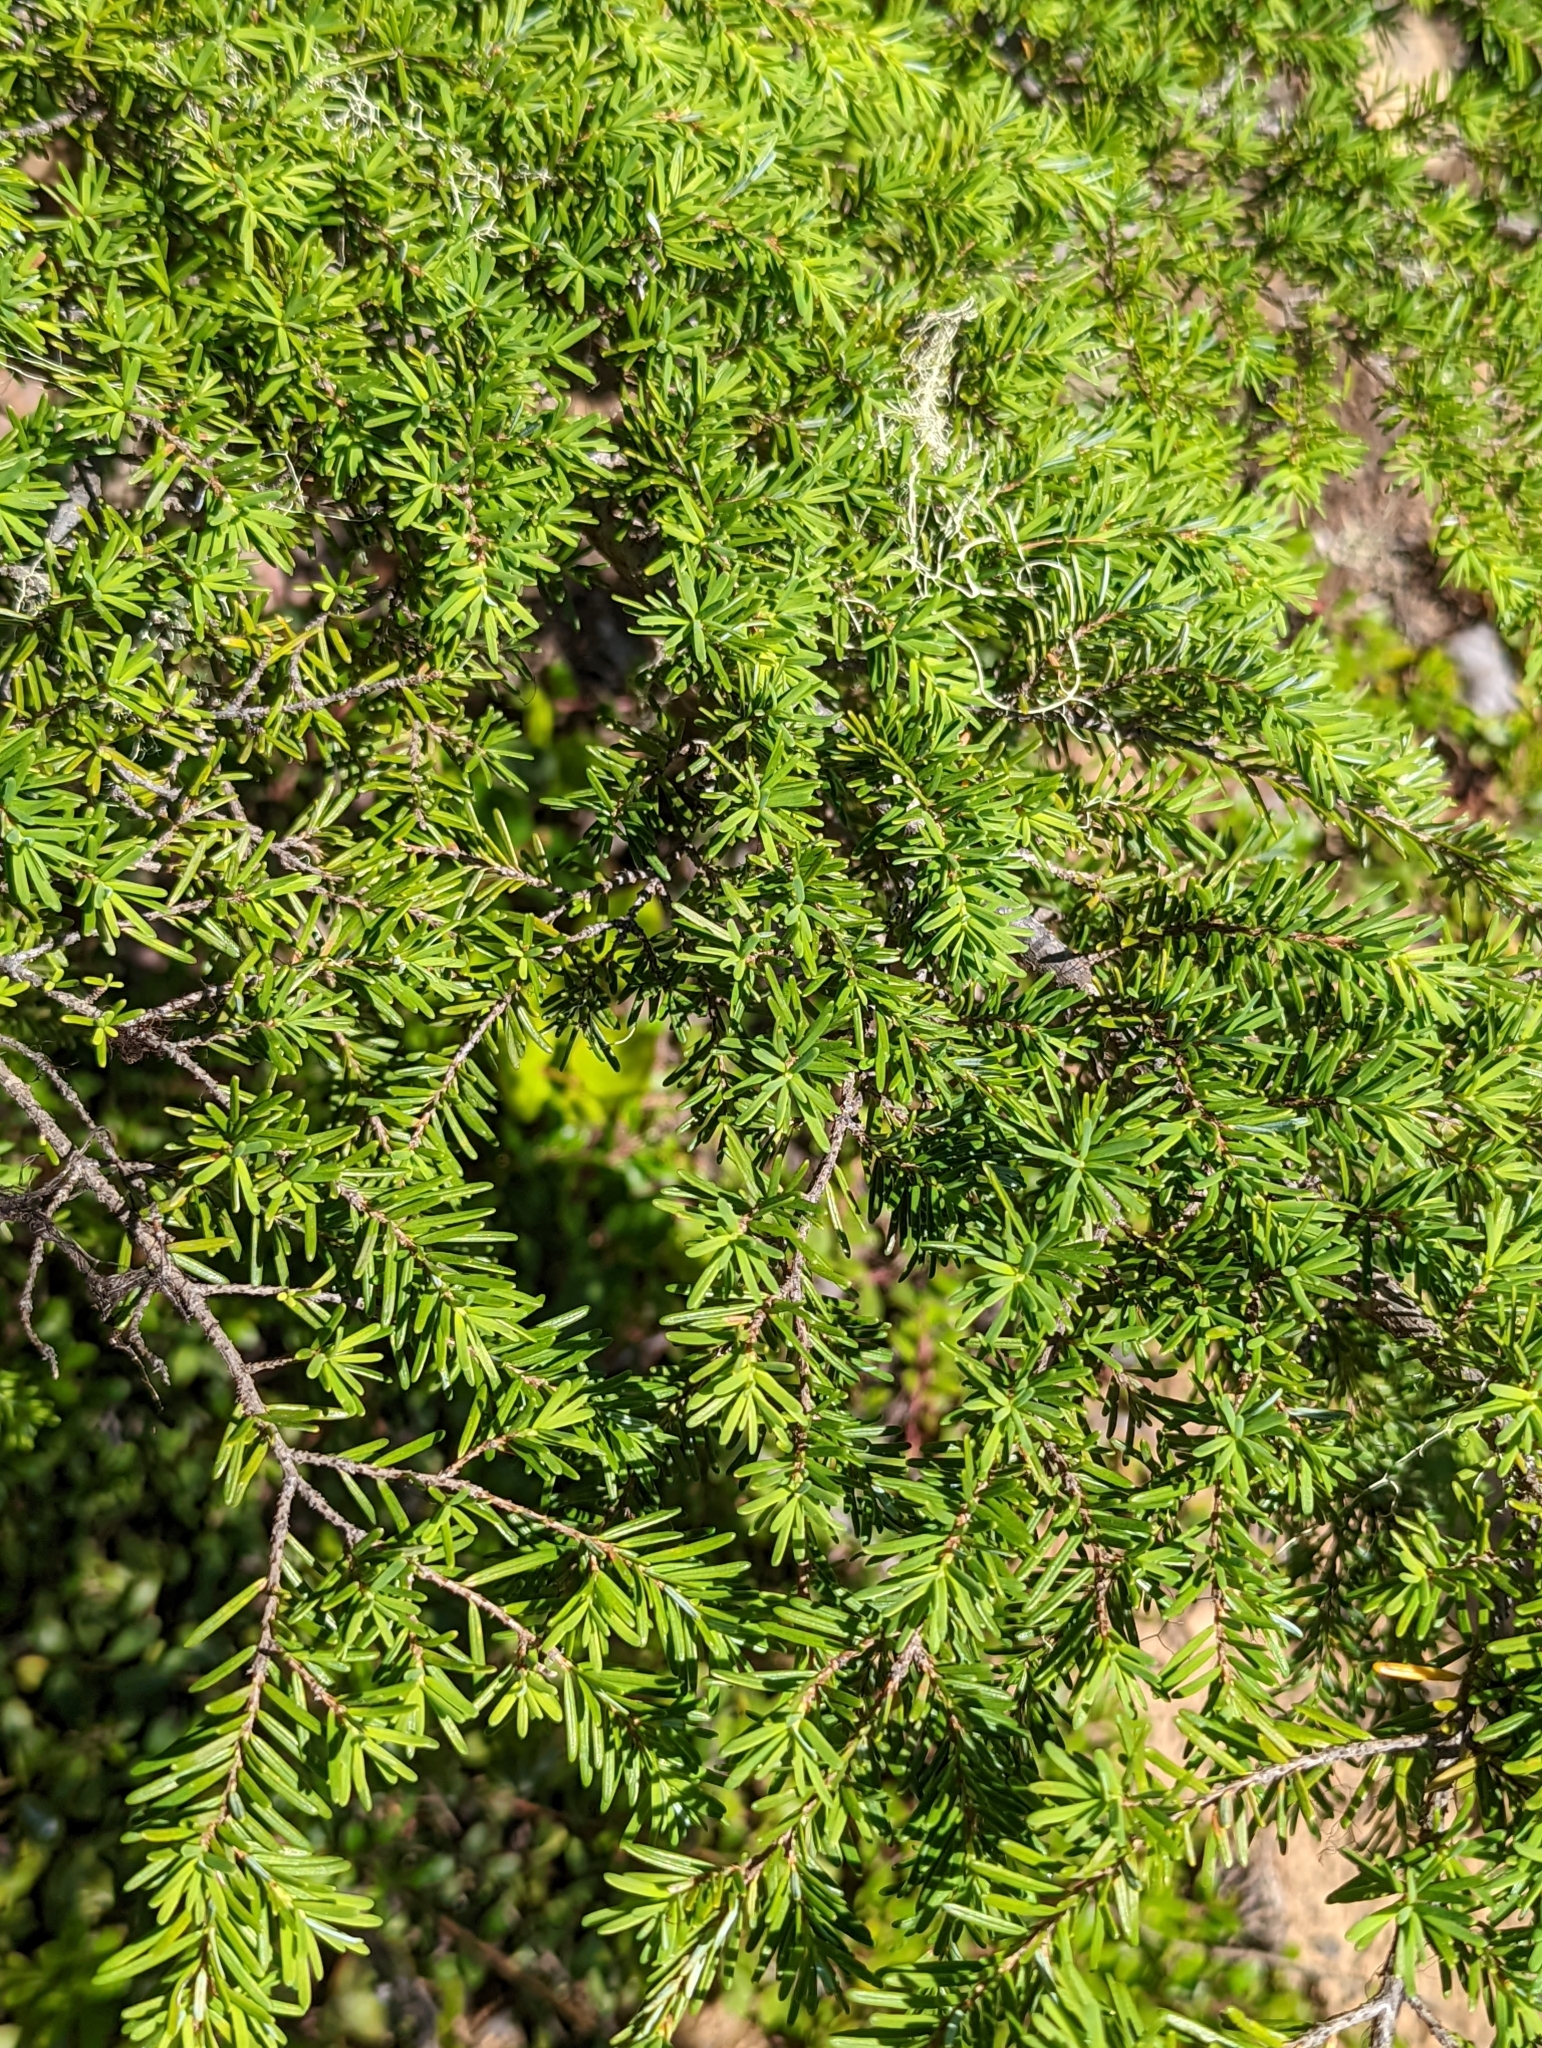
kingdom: Plantae
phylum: Tracheophyta
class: Pinopsida
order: Pinales
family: Pinaceae
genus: Tsuga
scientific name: Tsuga heterophylla
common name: Western hemlock
